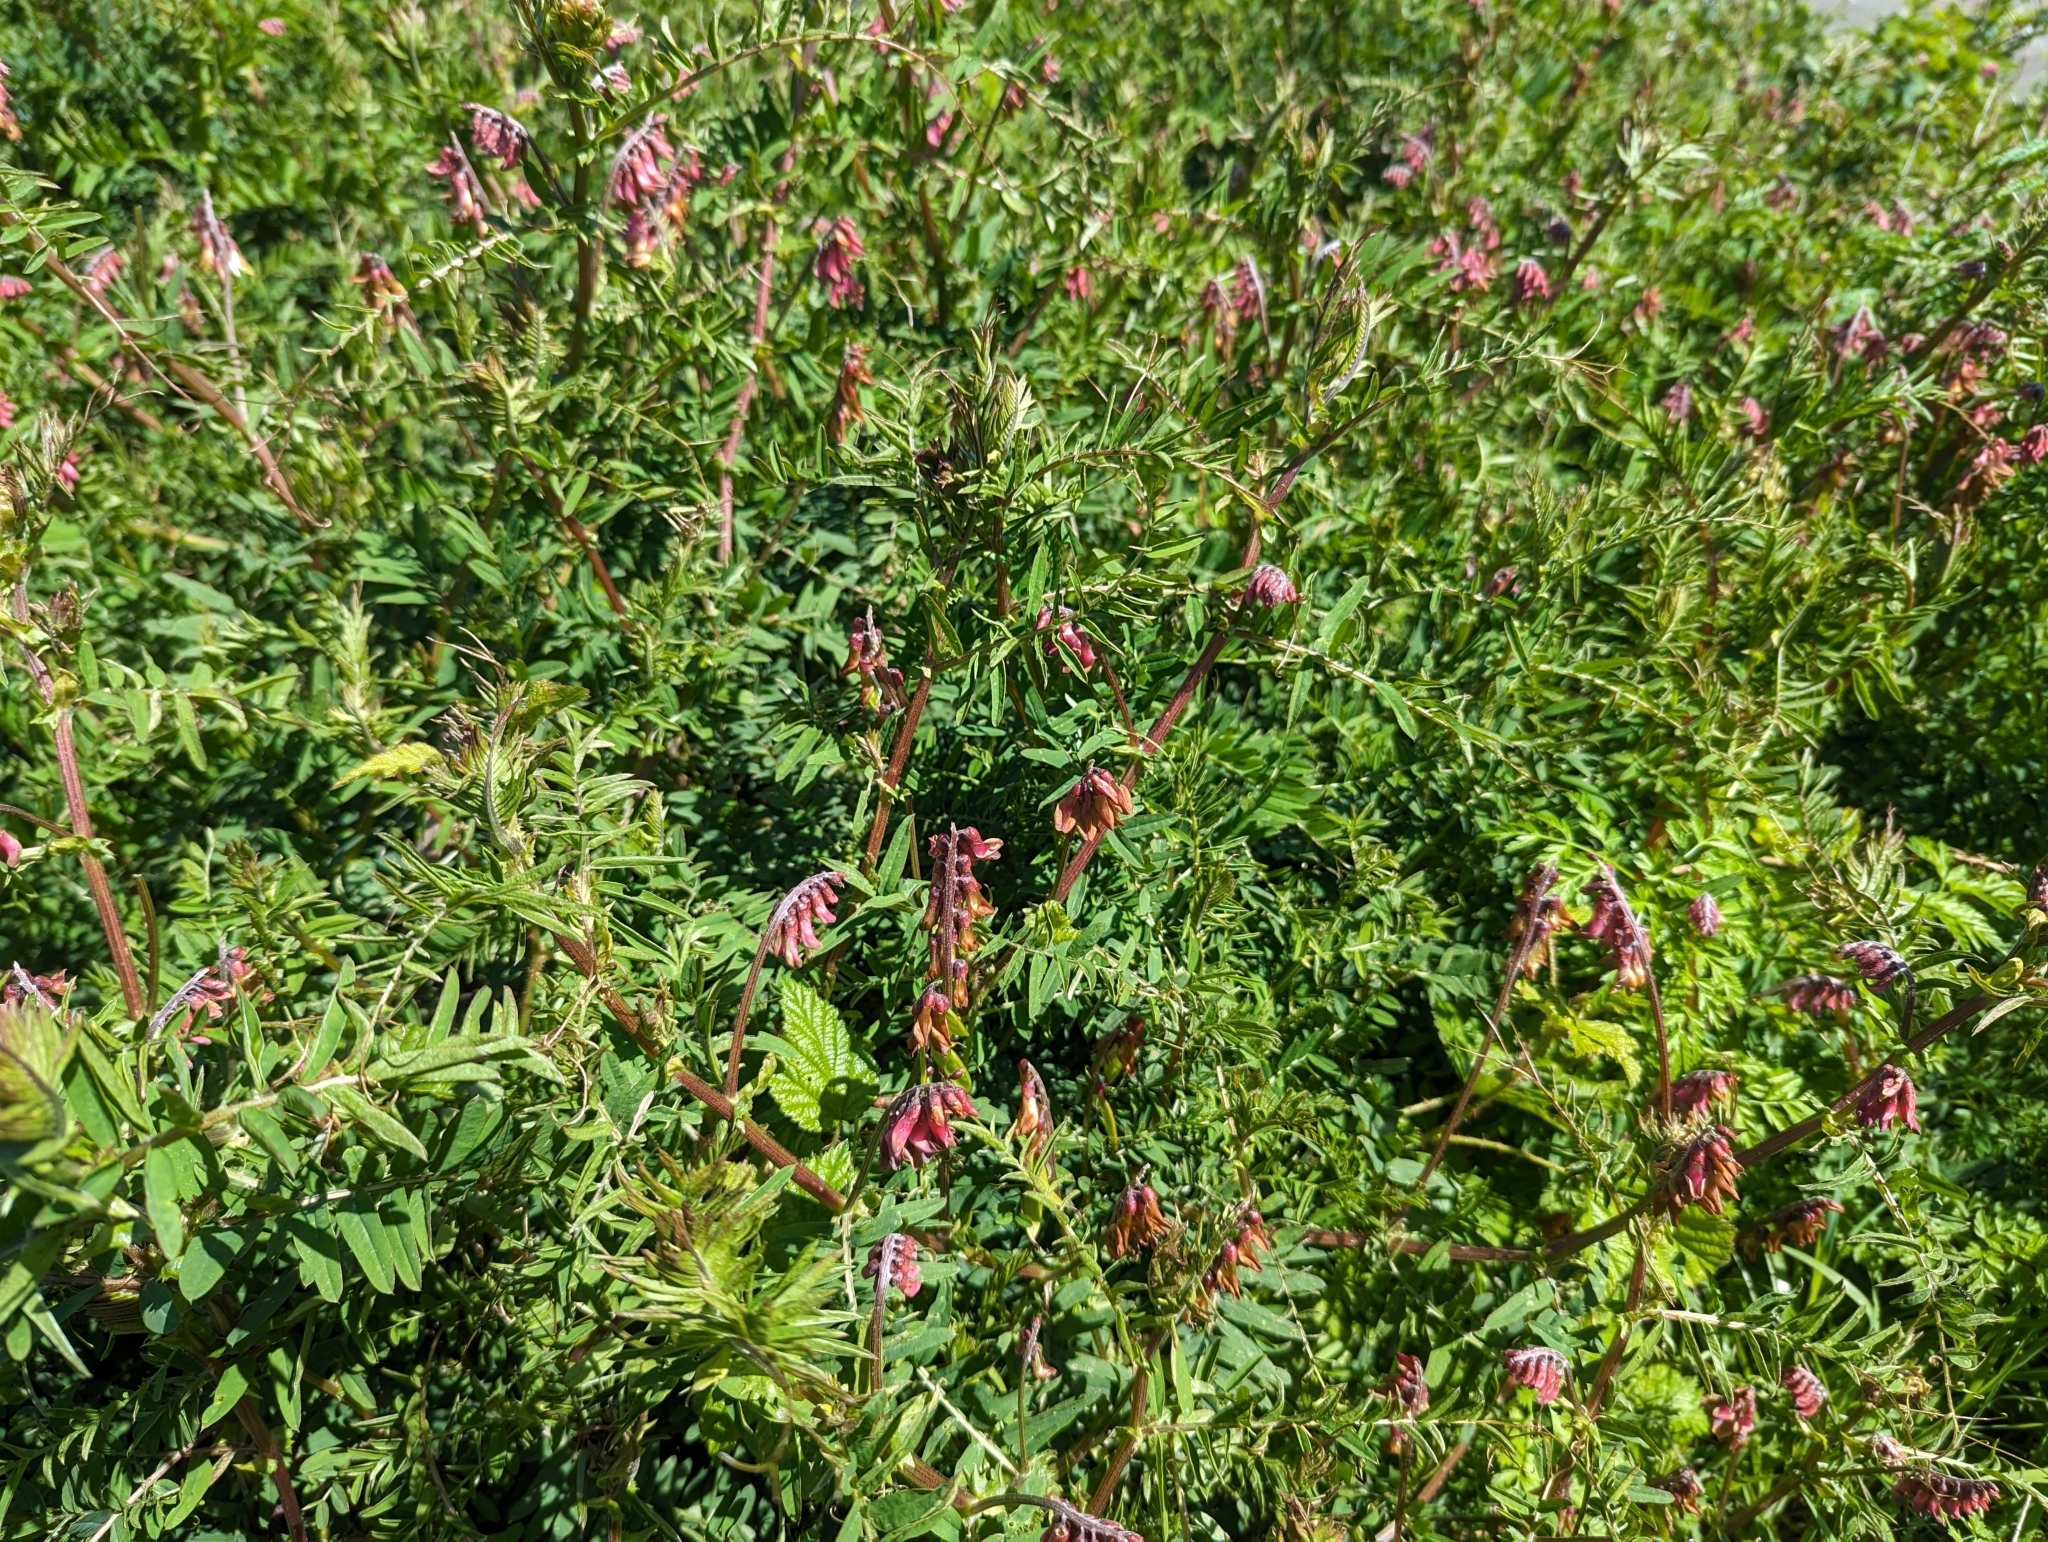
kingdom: Plantae
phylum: Tracheophyta
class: Magnoliopsida
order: Fabales
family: Fabaceae
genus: Vicia
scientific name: Vicia
